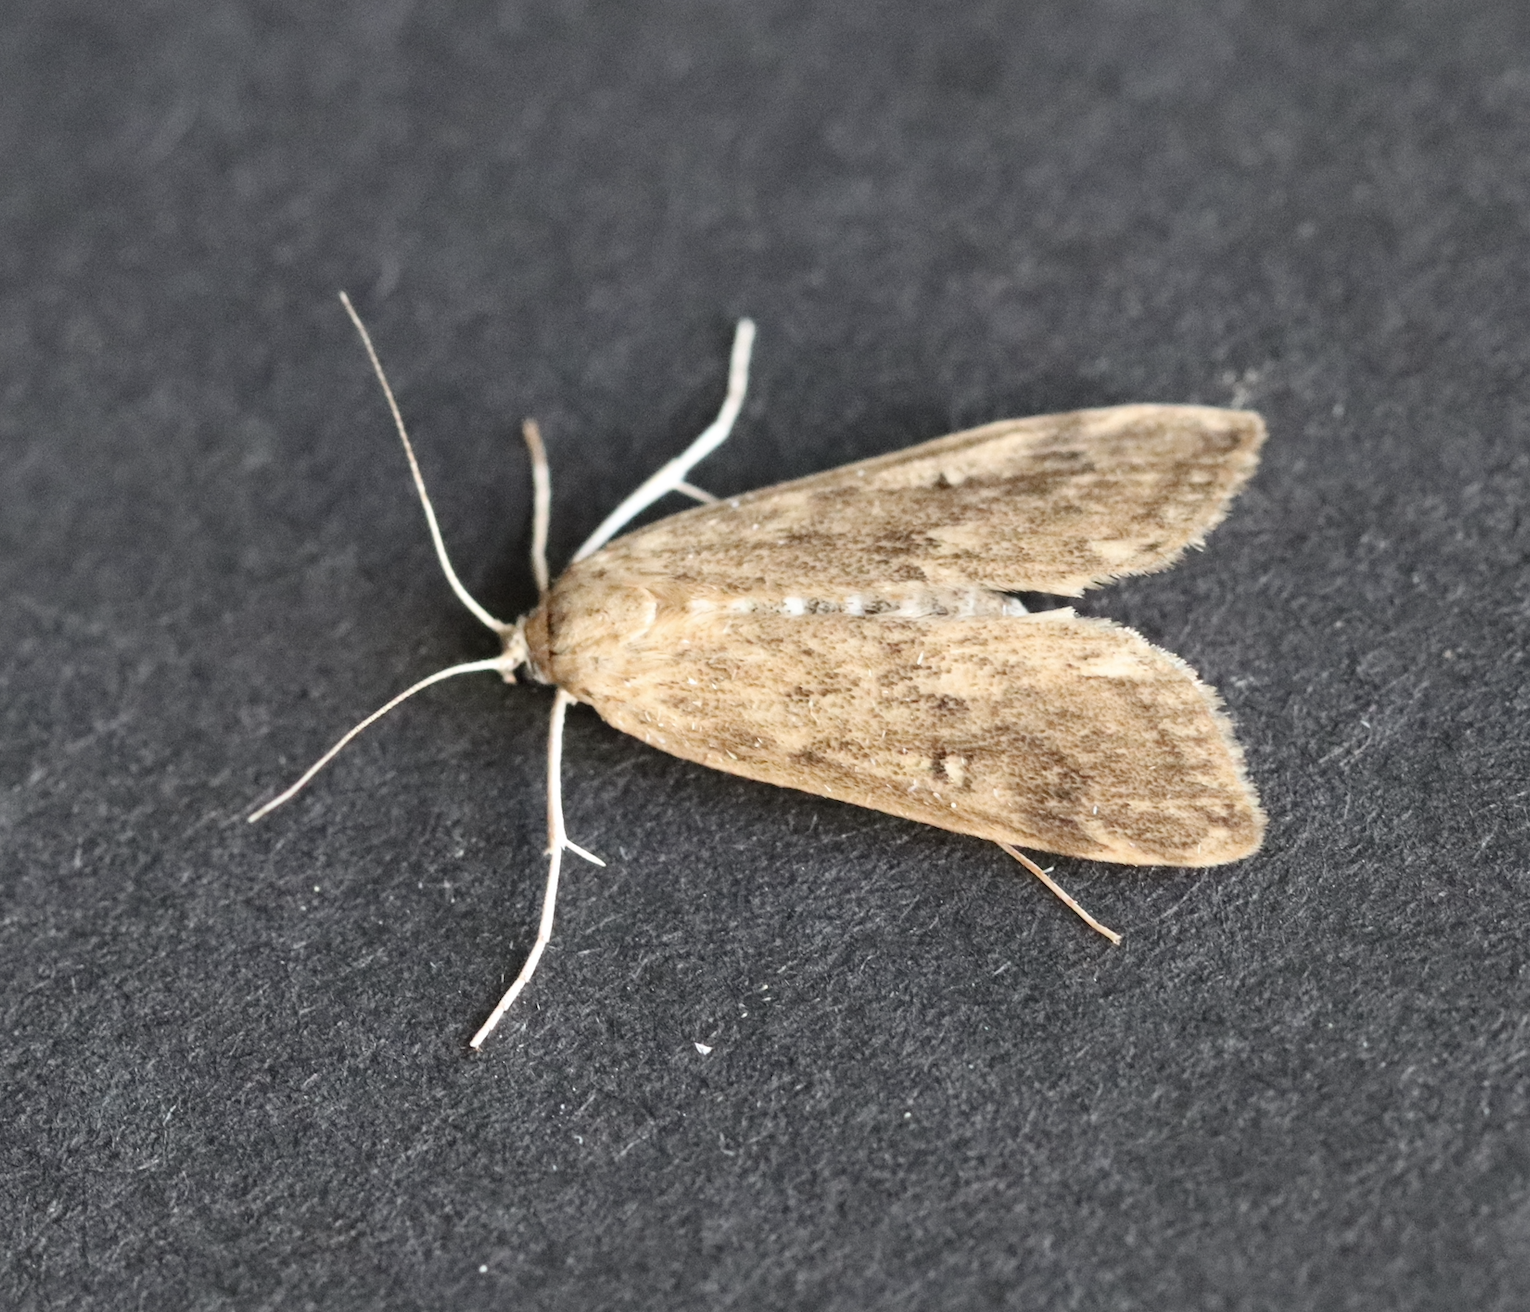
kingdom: Animalia
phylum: Arthropoda
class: Insecta
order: Lepidoptera
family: Crambidae
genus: Parapoynx
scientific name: Parapoynx stratiotata
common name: Ringed china-mark
